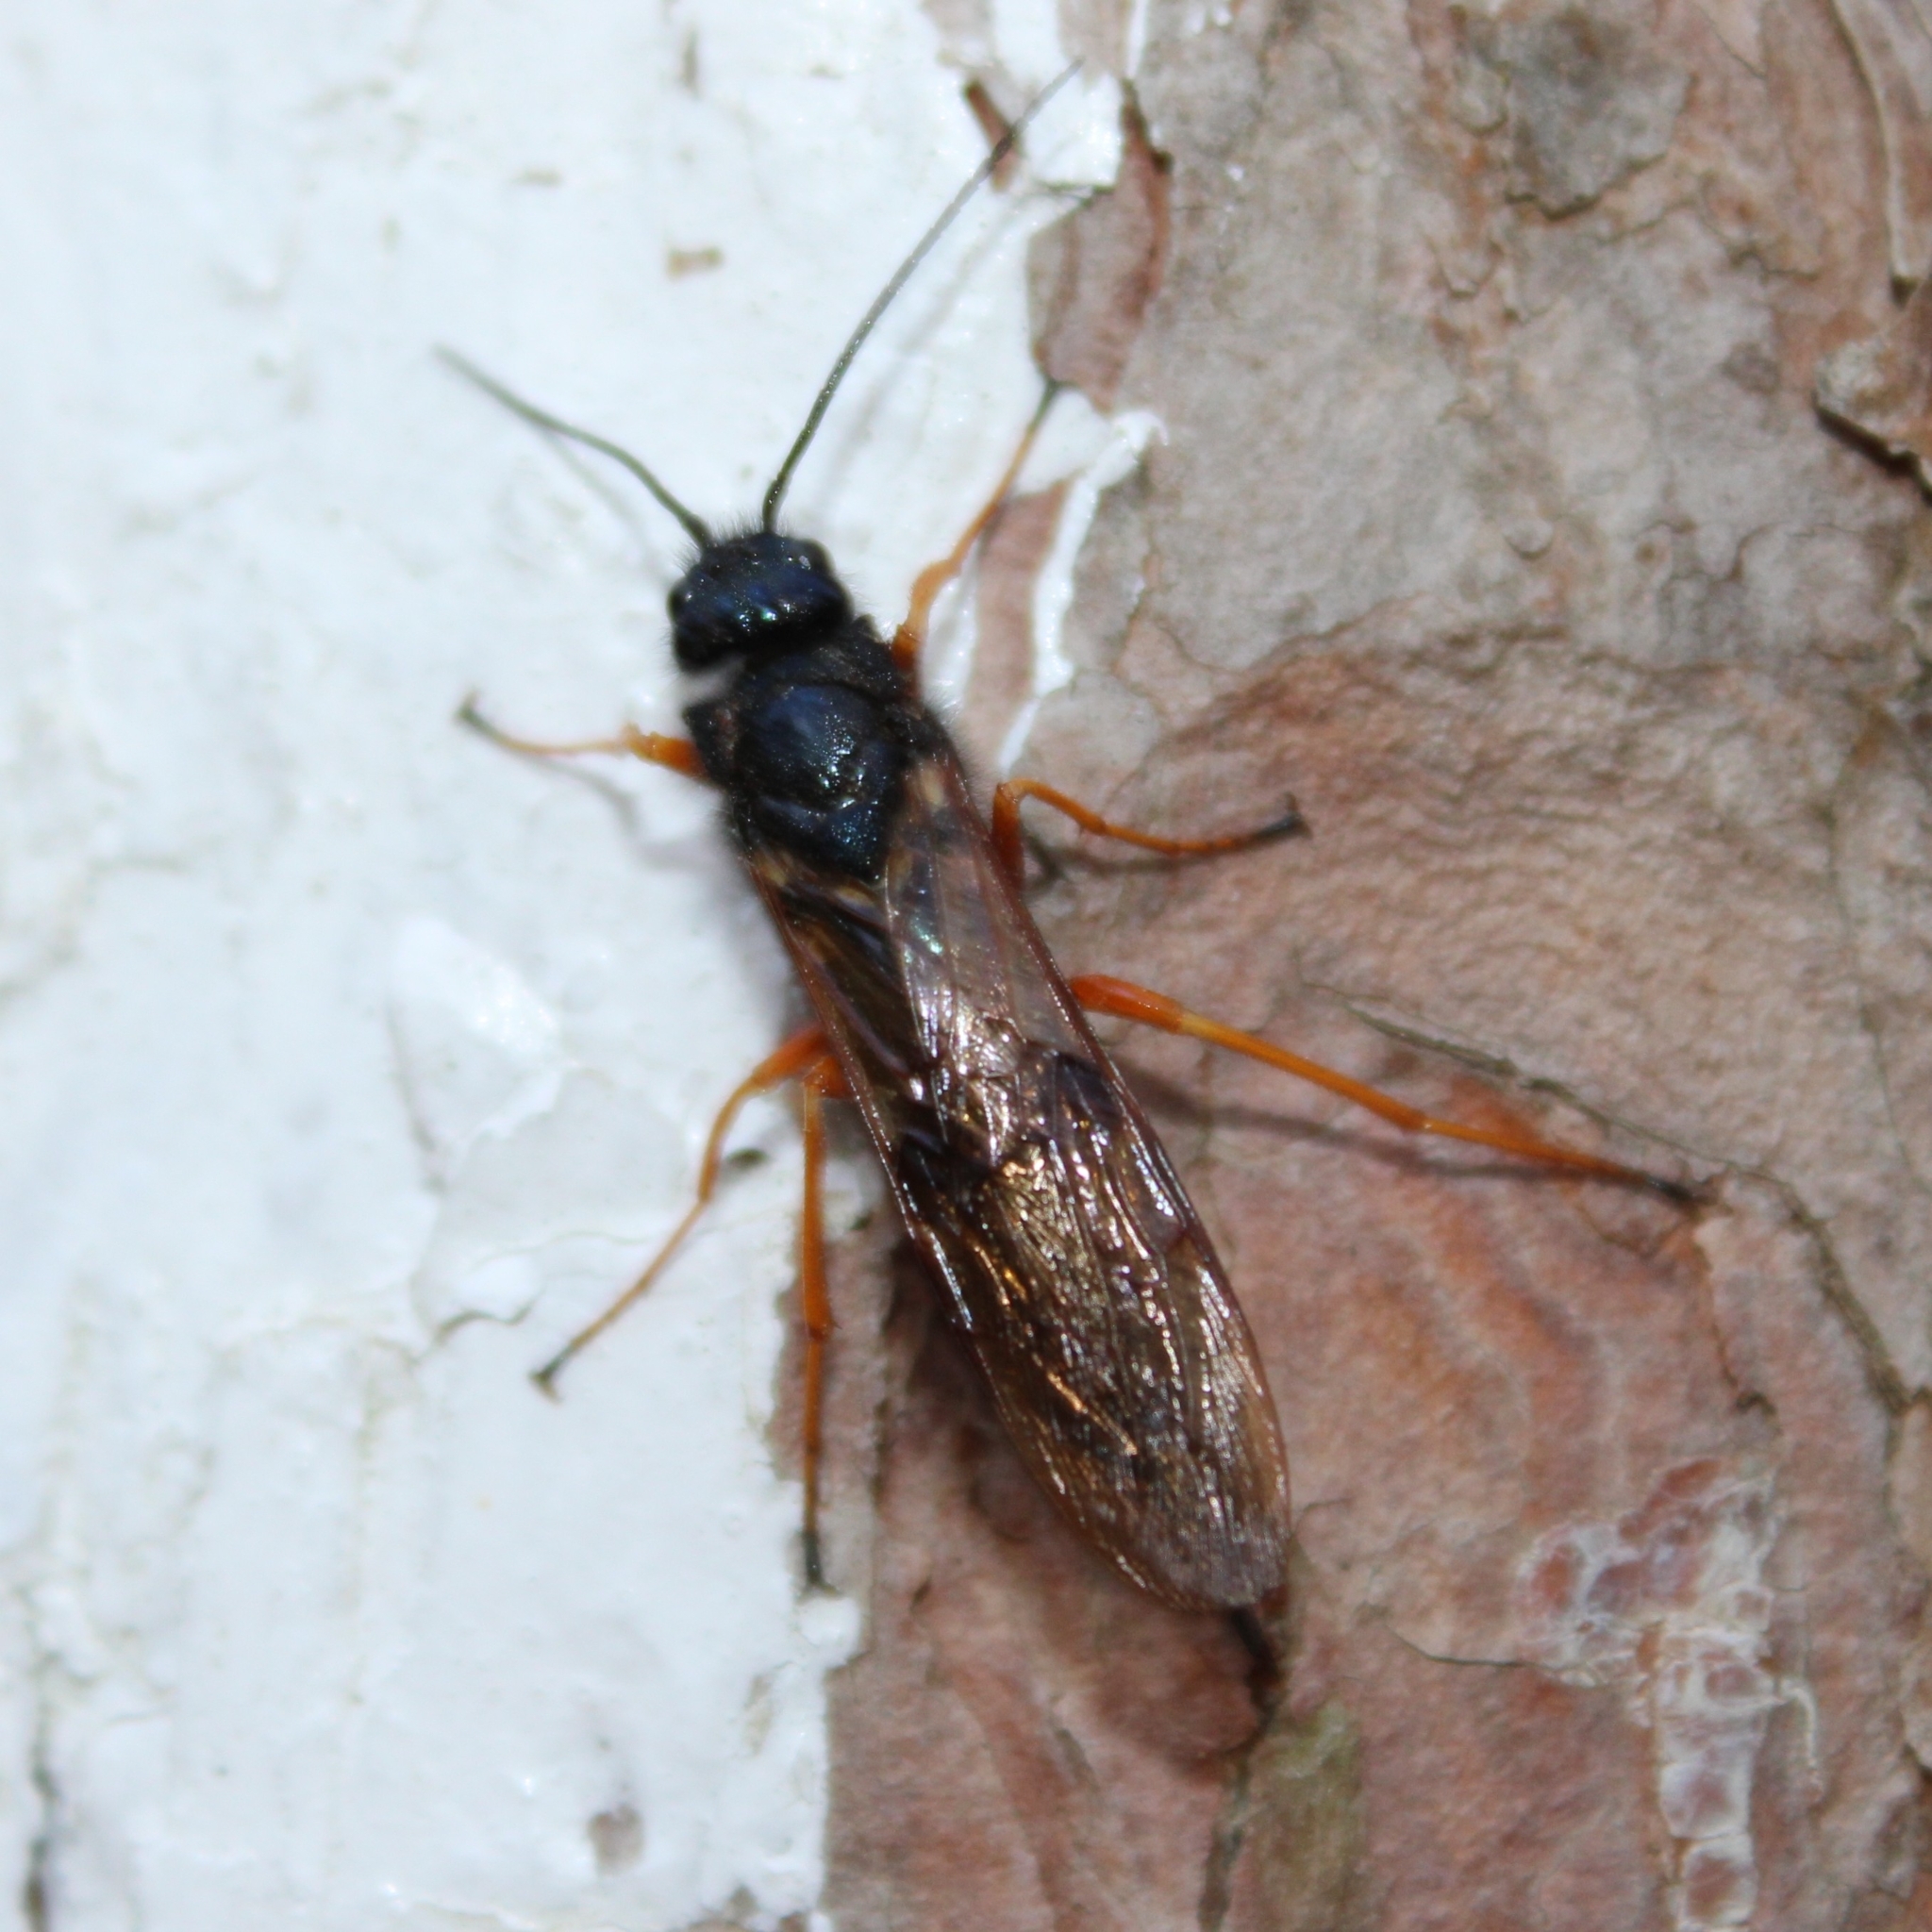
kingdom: Animalia
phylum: Arthropoda
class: Insecta
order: Hymenoptera
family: Siricidae
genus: Sirex
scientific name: Sirex noctilio
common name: Woodwasp
